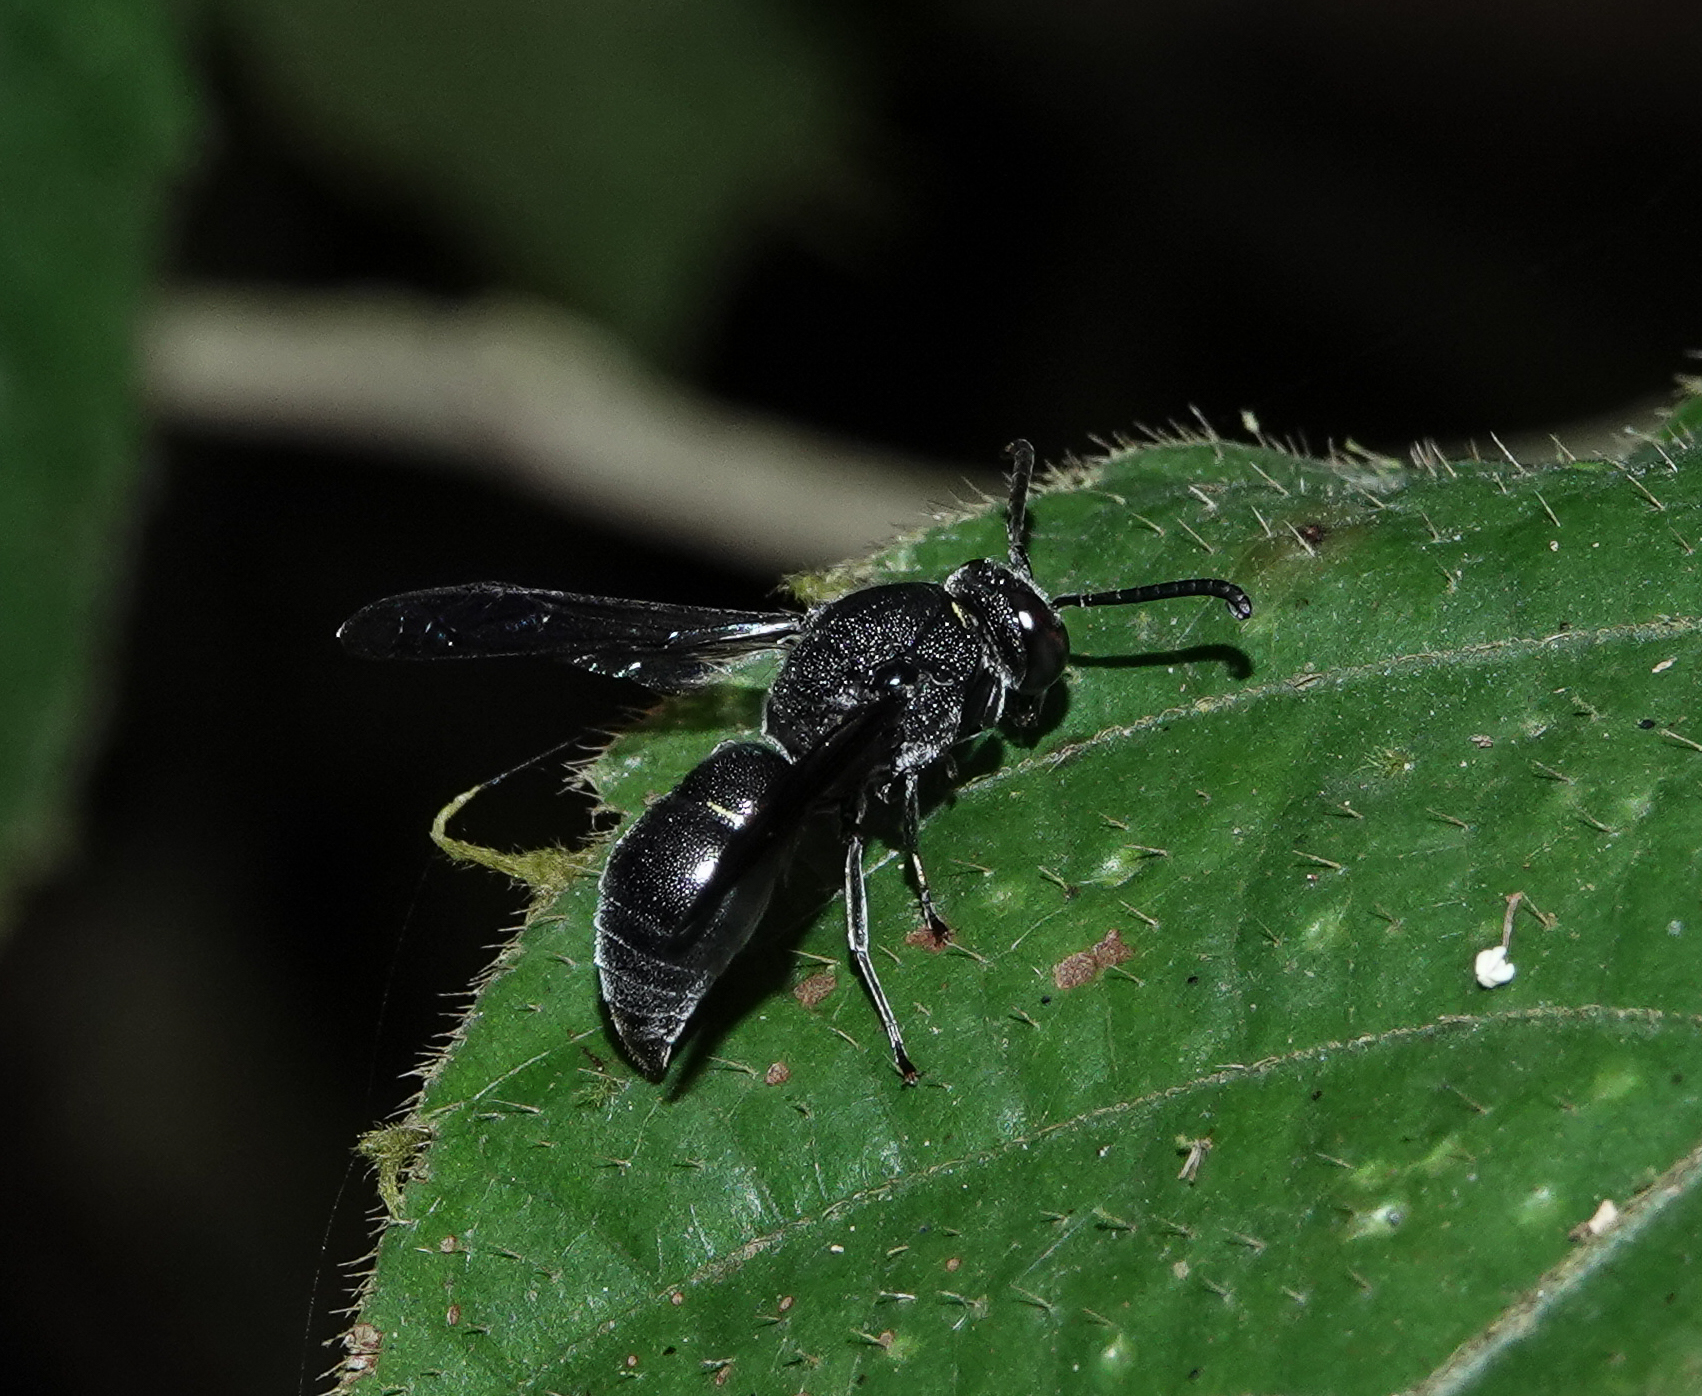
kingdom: Animalia
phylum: Arthropoda
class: Insecta
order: Hymenoptera
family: Eumenidae
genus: Anterhynchium
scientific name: Anterhynchium flavomarginatum
